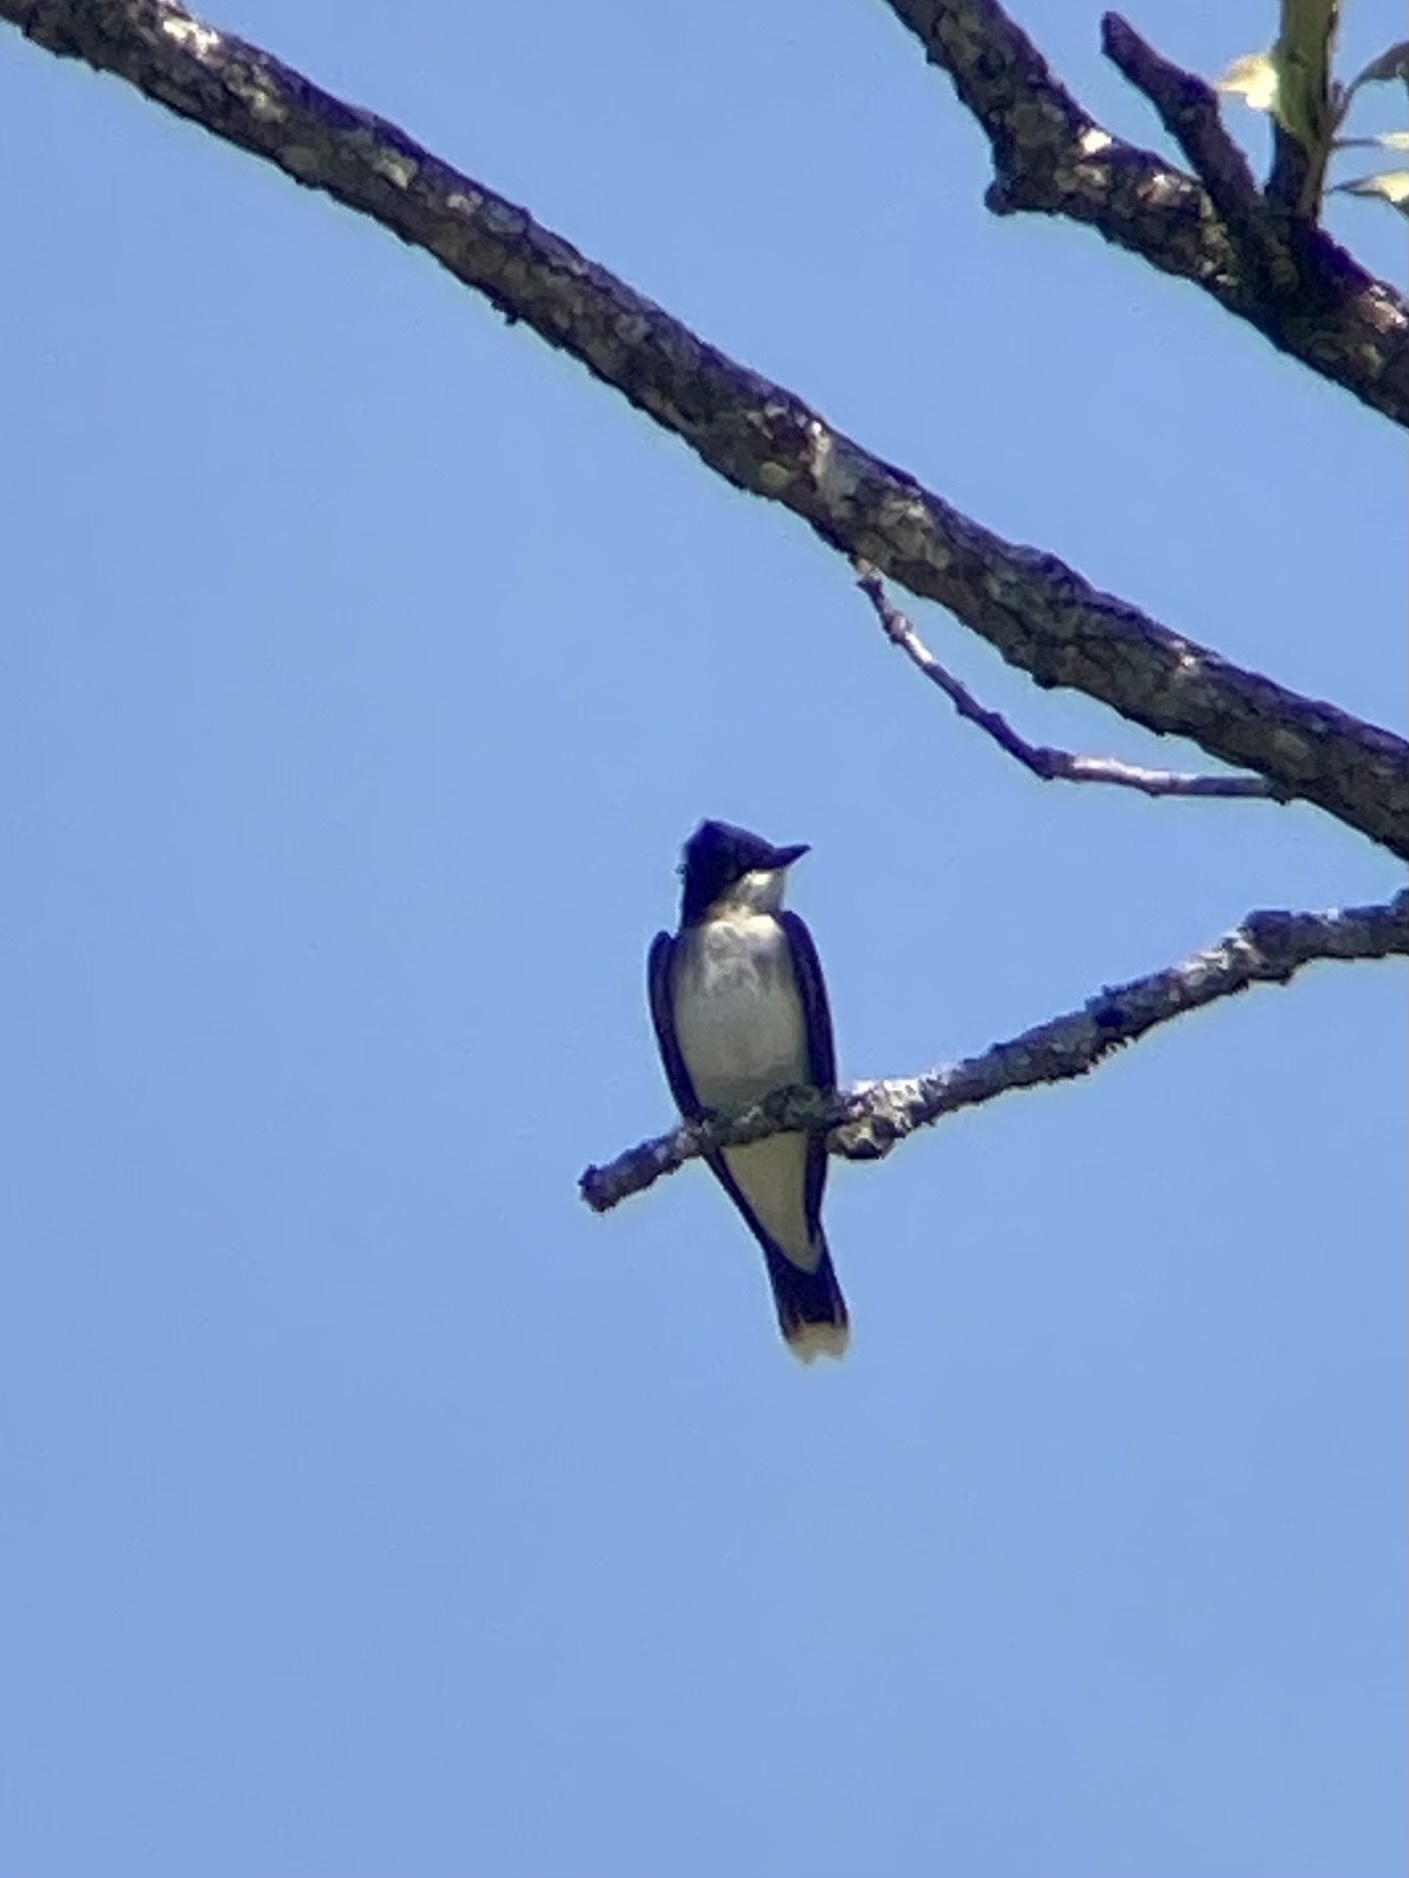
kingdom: Animalia
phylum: Chordata
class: Aves
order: Passeriformes
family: Tyrannidae
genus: Tyrannus
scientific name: Tyrannus tyrannus
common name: Eastern kingbird
